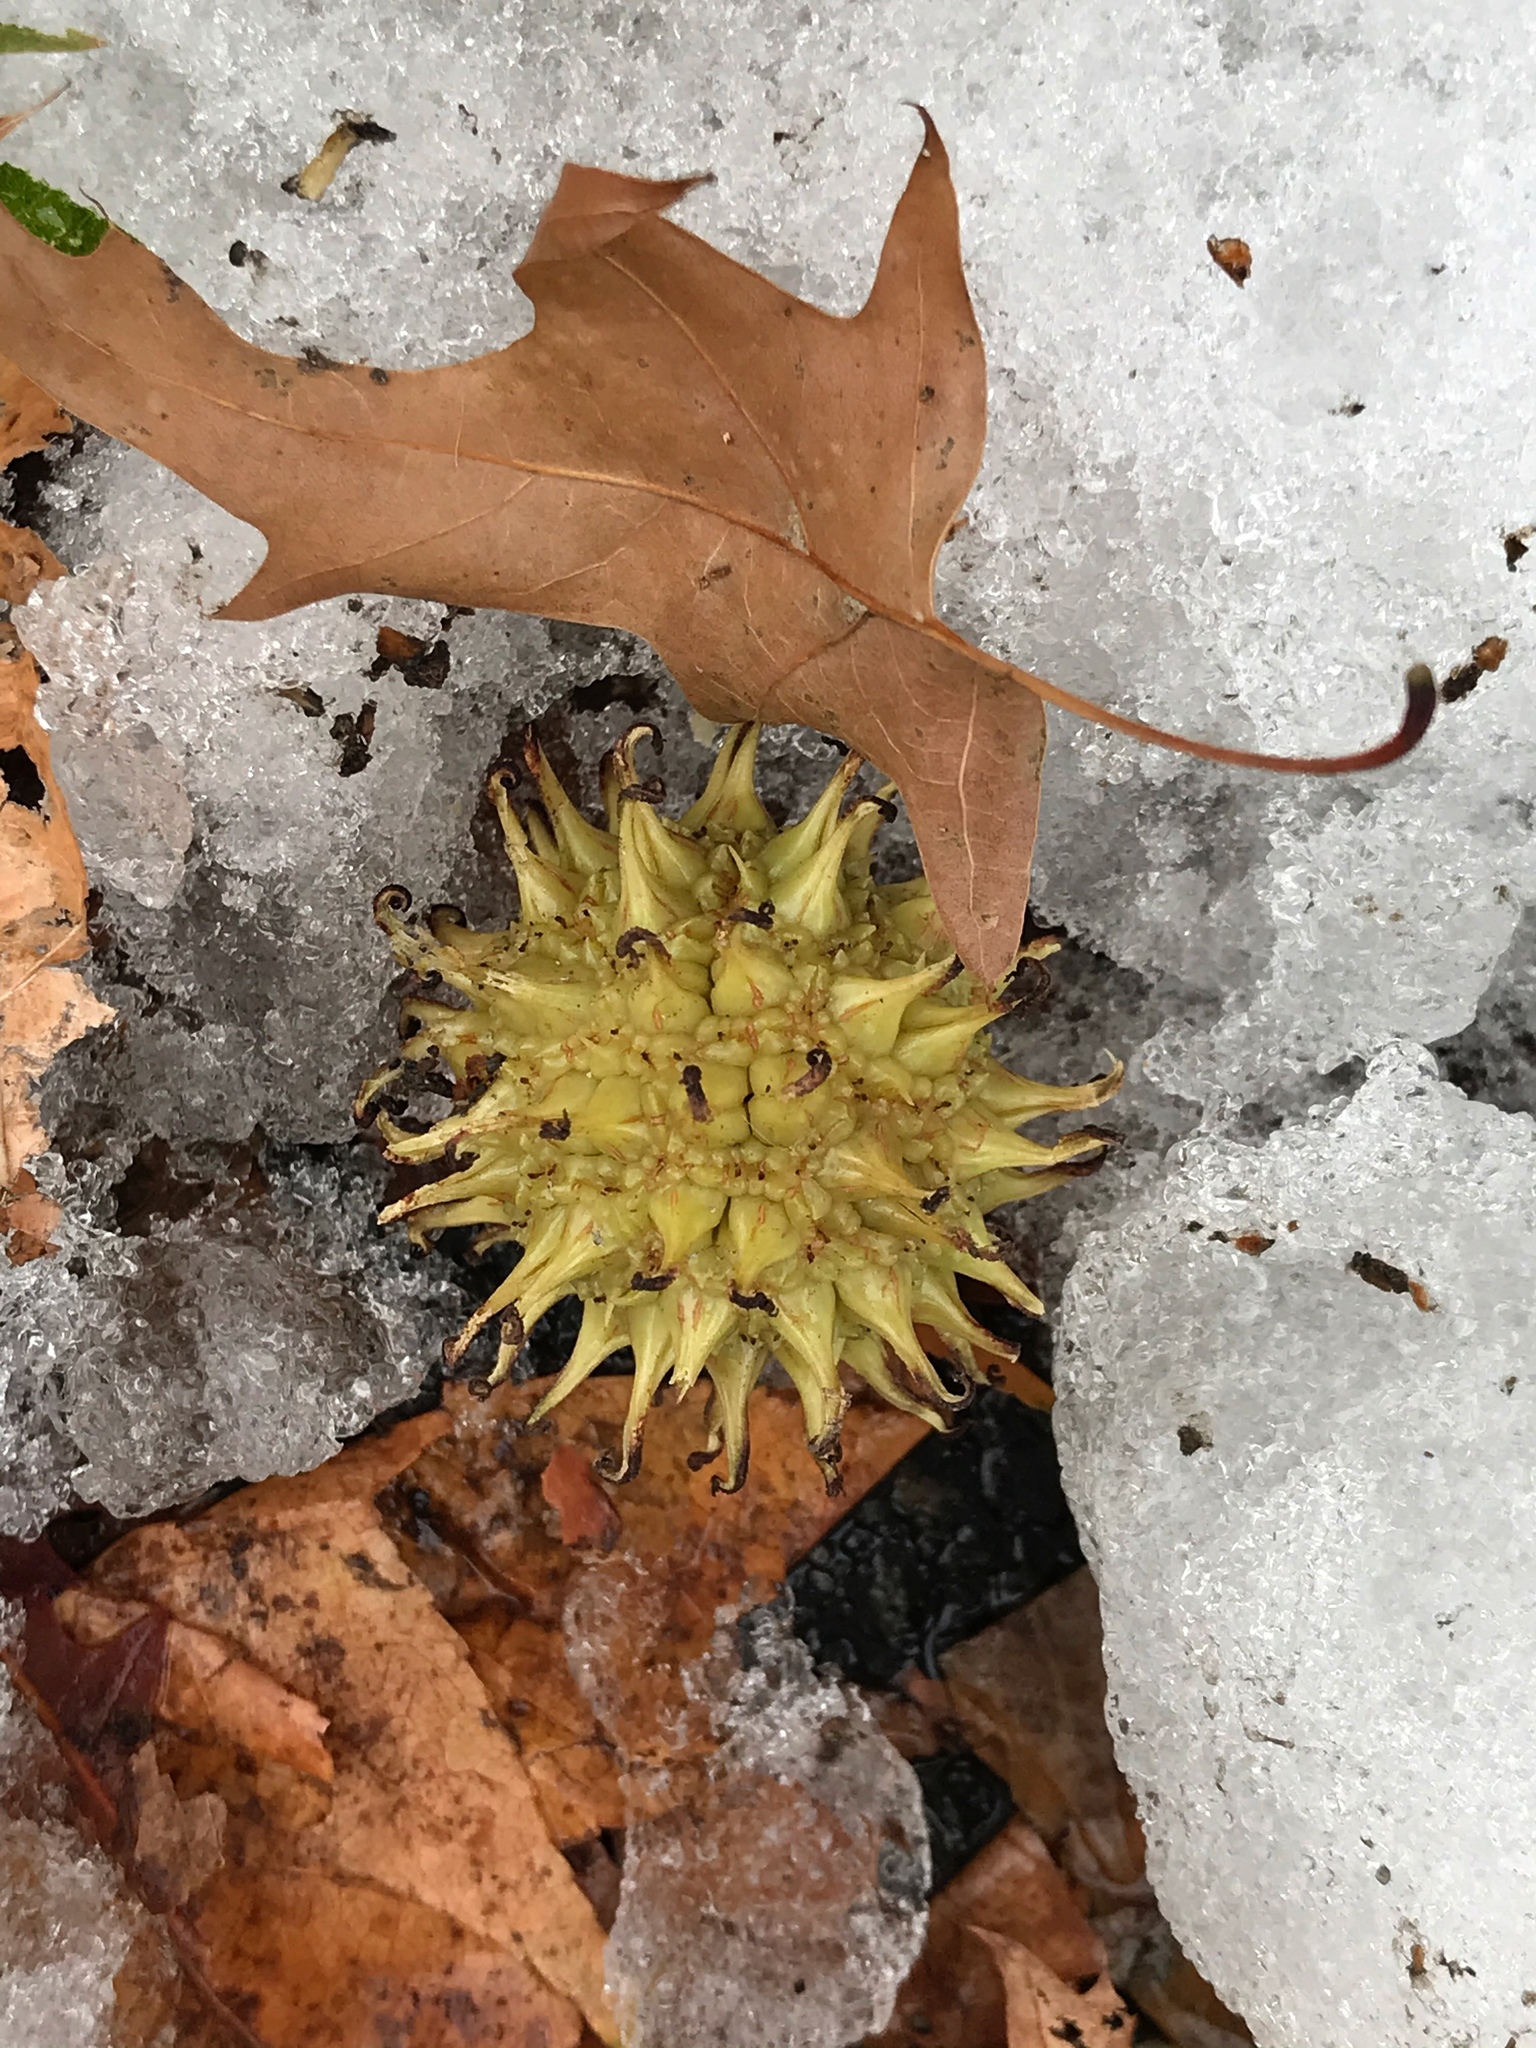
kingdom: Plantae
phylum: Tracheophyta
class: Magnoliopsida
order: Saxifragales
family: Altingiaceae
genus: Liquidambar
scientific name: Liquidambar styraciflua
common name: Sweet gum
